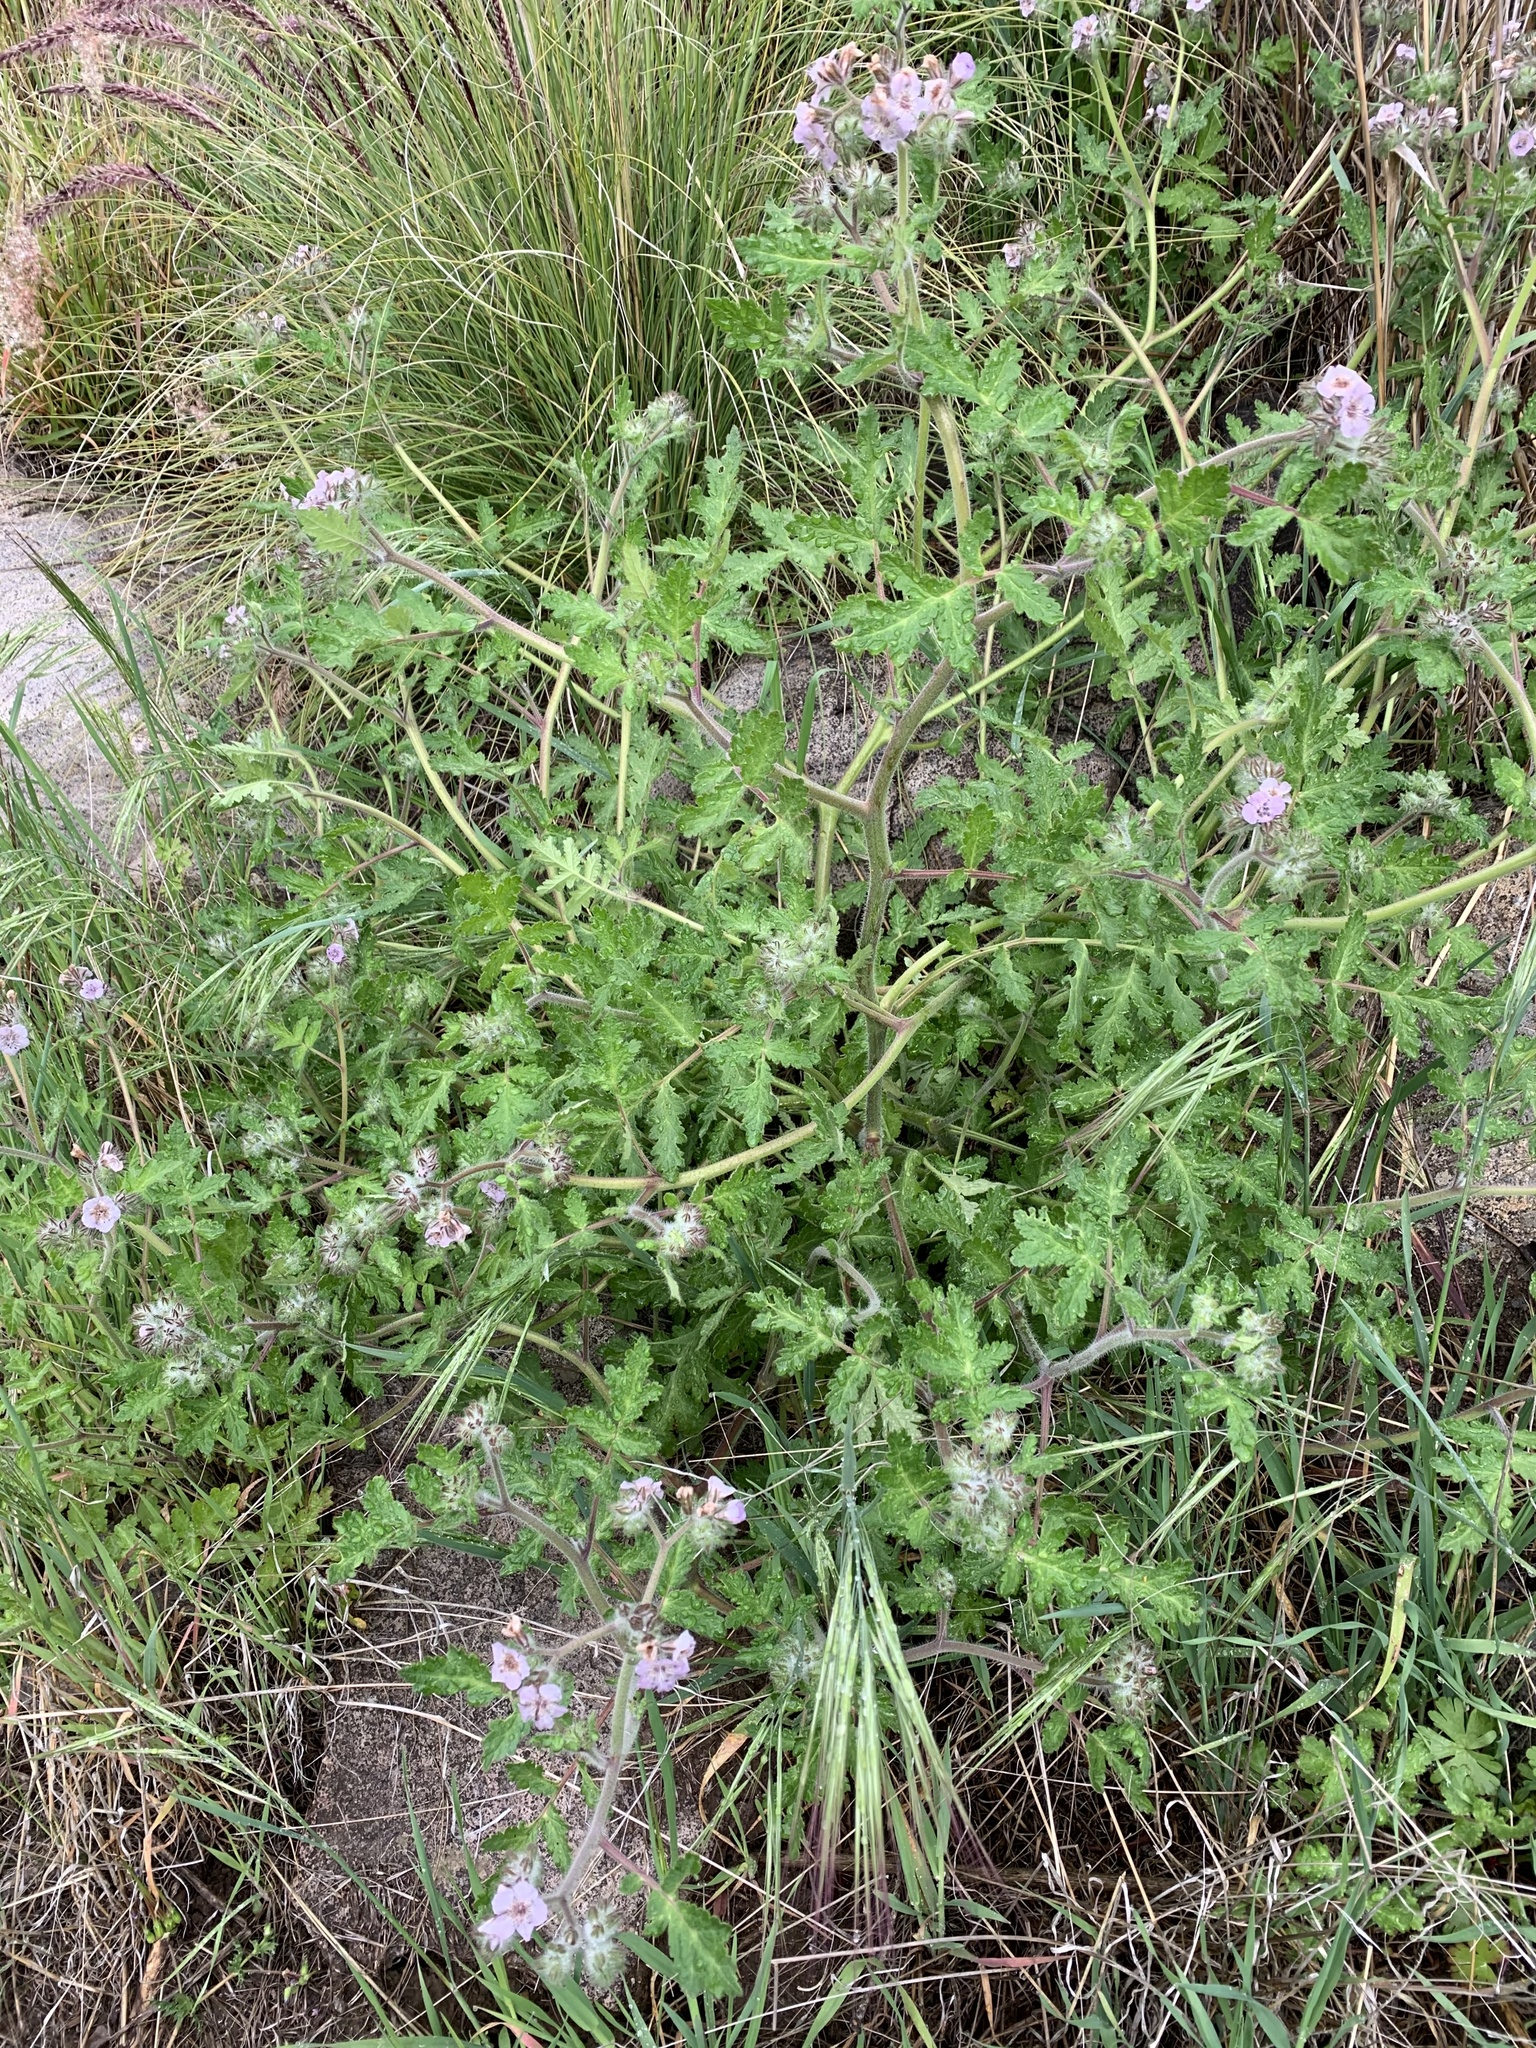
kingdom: Plantae
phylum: Tracheophyta
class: Magnoliopsida
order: Boraginales
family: Hydrophyllaceae
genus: Phacelia
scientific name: Phacelia cicutaria
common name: Caterpillar phacelia
